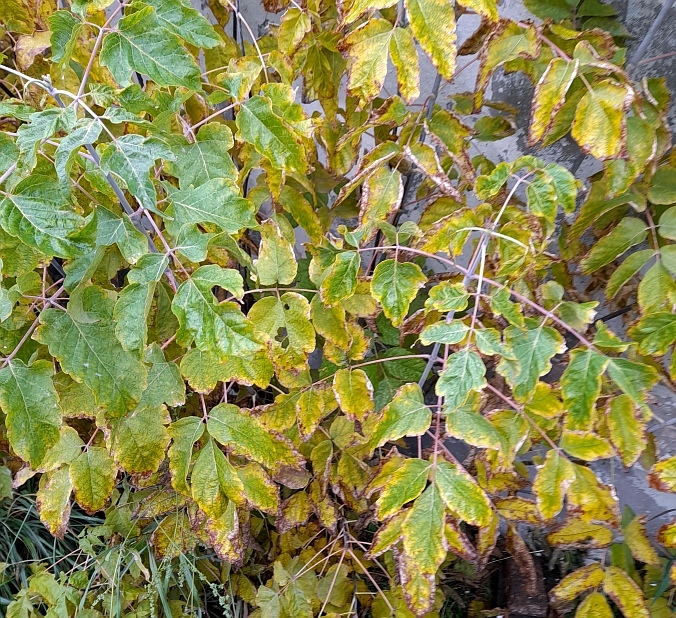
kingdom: Plantae
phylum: Tracheophyta
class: Magnoliopsida
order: Sapindales
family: Sapindaceae
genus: Acer
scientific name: Acer negundo
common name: Ashleaf maple
